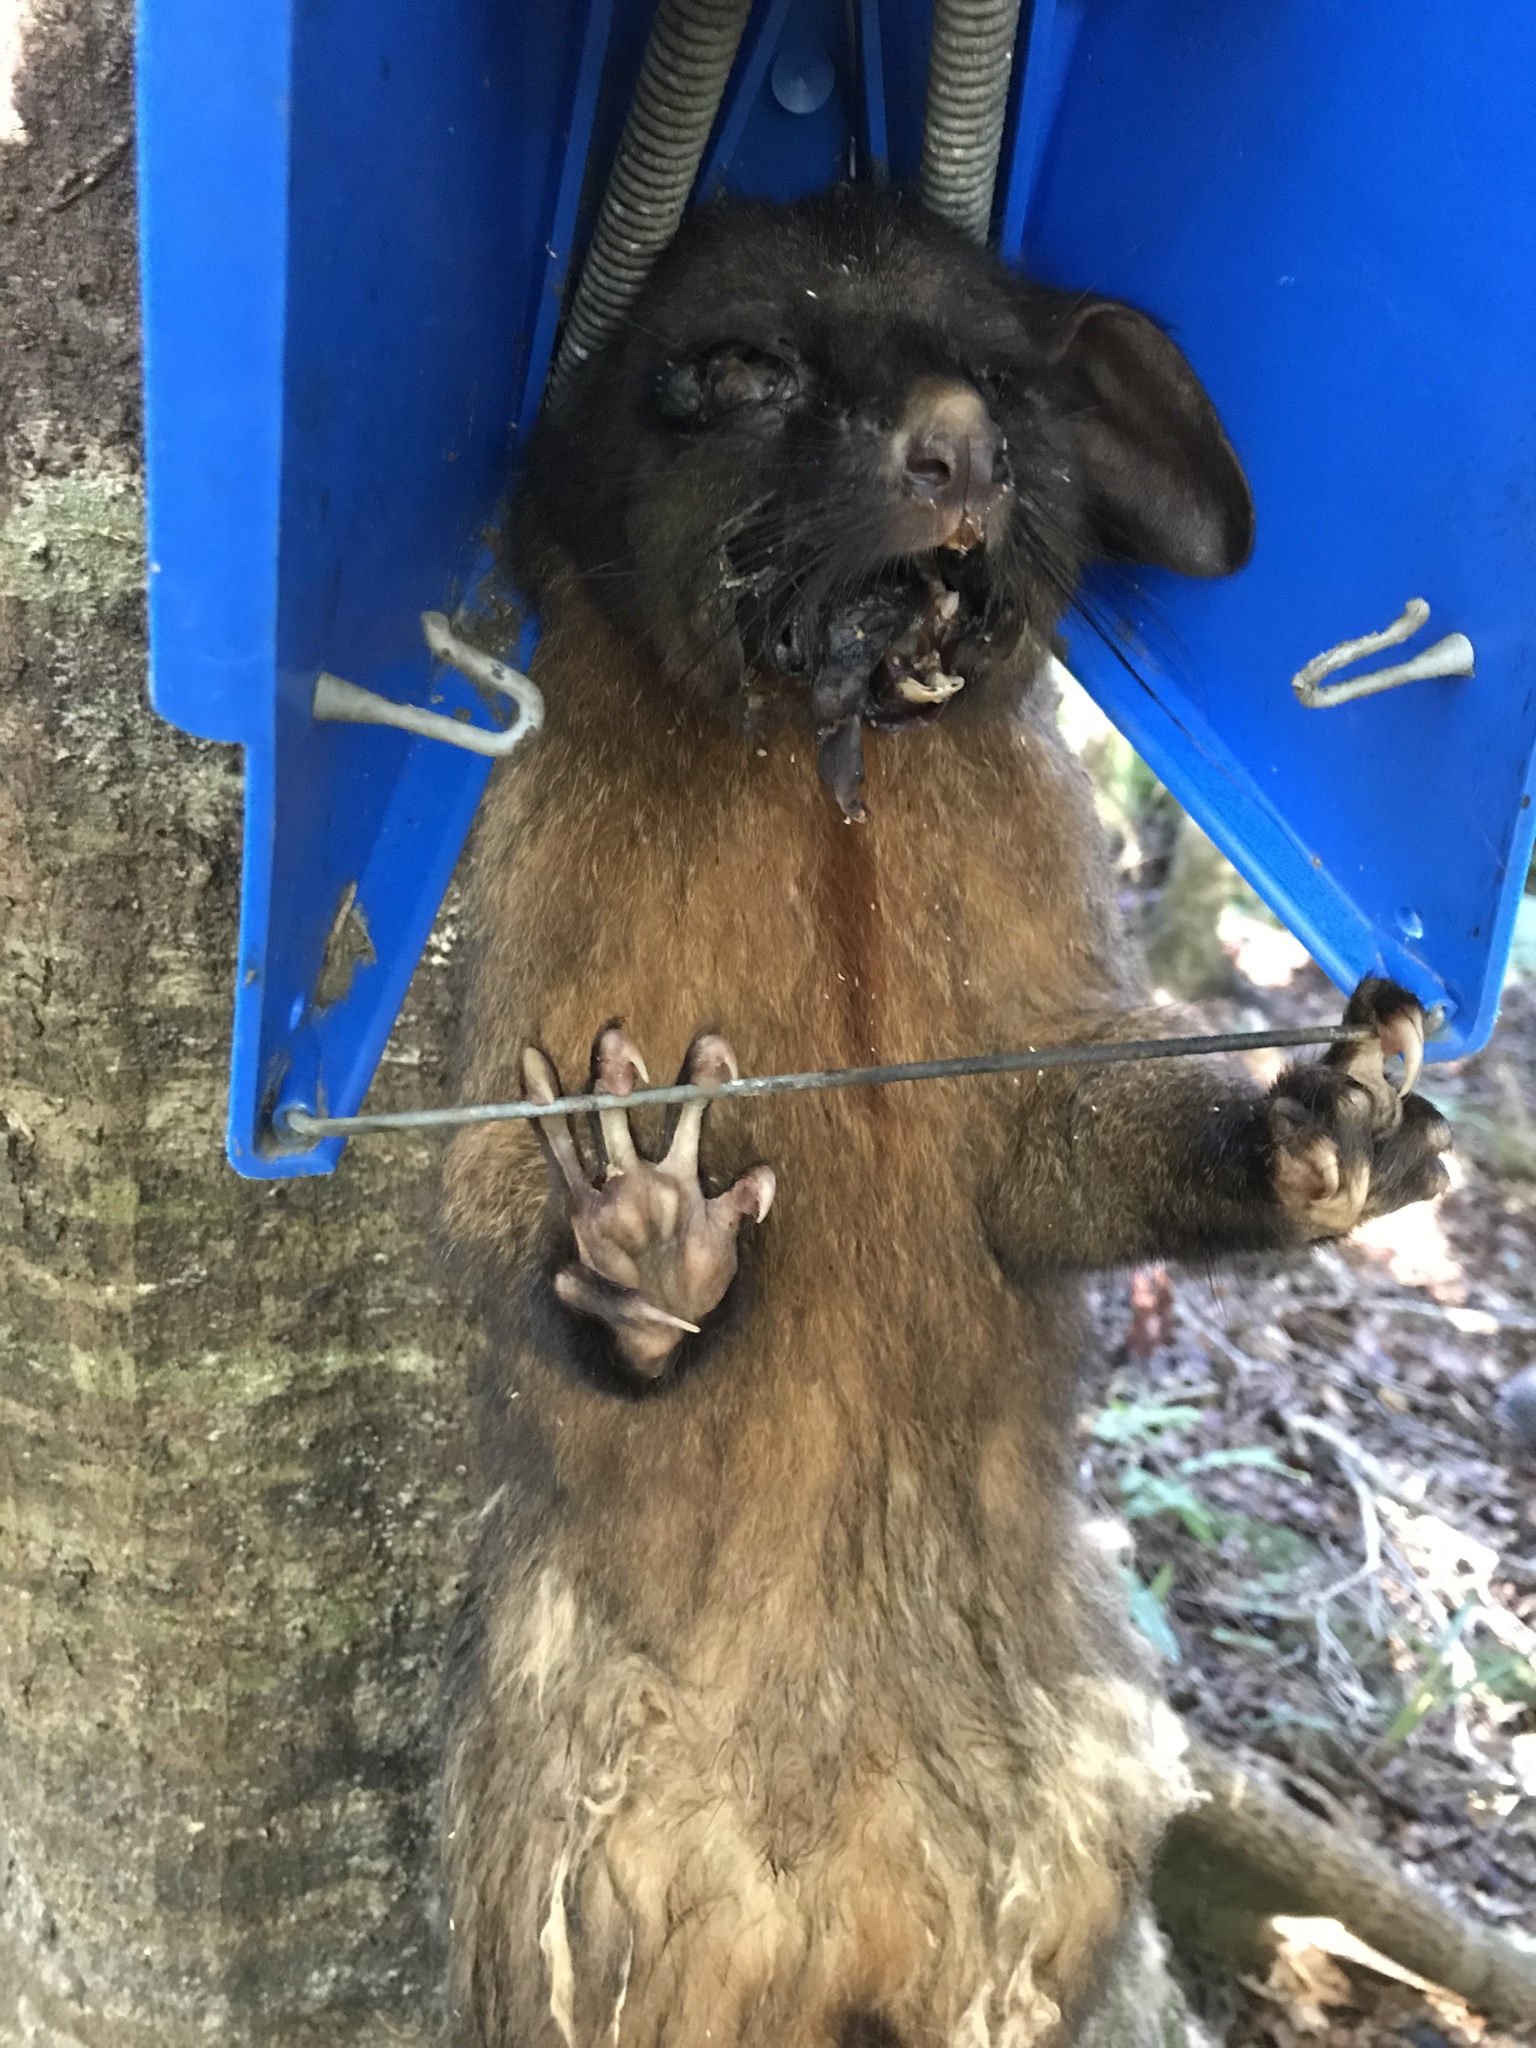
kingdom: Animalia
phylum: Chordata
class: Mammalia
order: Diprotodontia
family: Phalangeridae
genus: Trichosurus
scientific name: Trichosurus vulpecula
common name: Common brushtail
